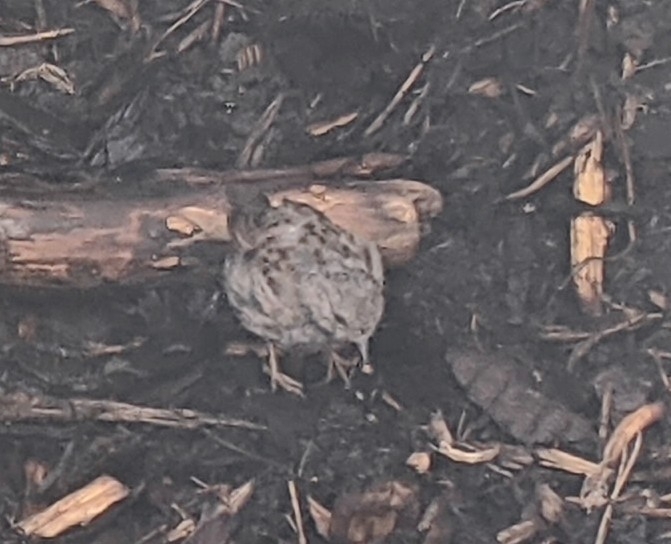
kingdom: Animalia
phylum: Chordata
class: Aves
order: Passeriformes
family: Prunellidae
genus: Prunella
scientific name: Prunella modularis
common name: Dunnock
